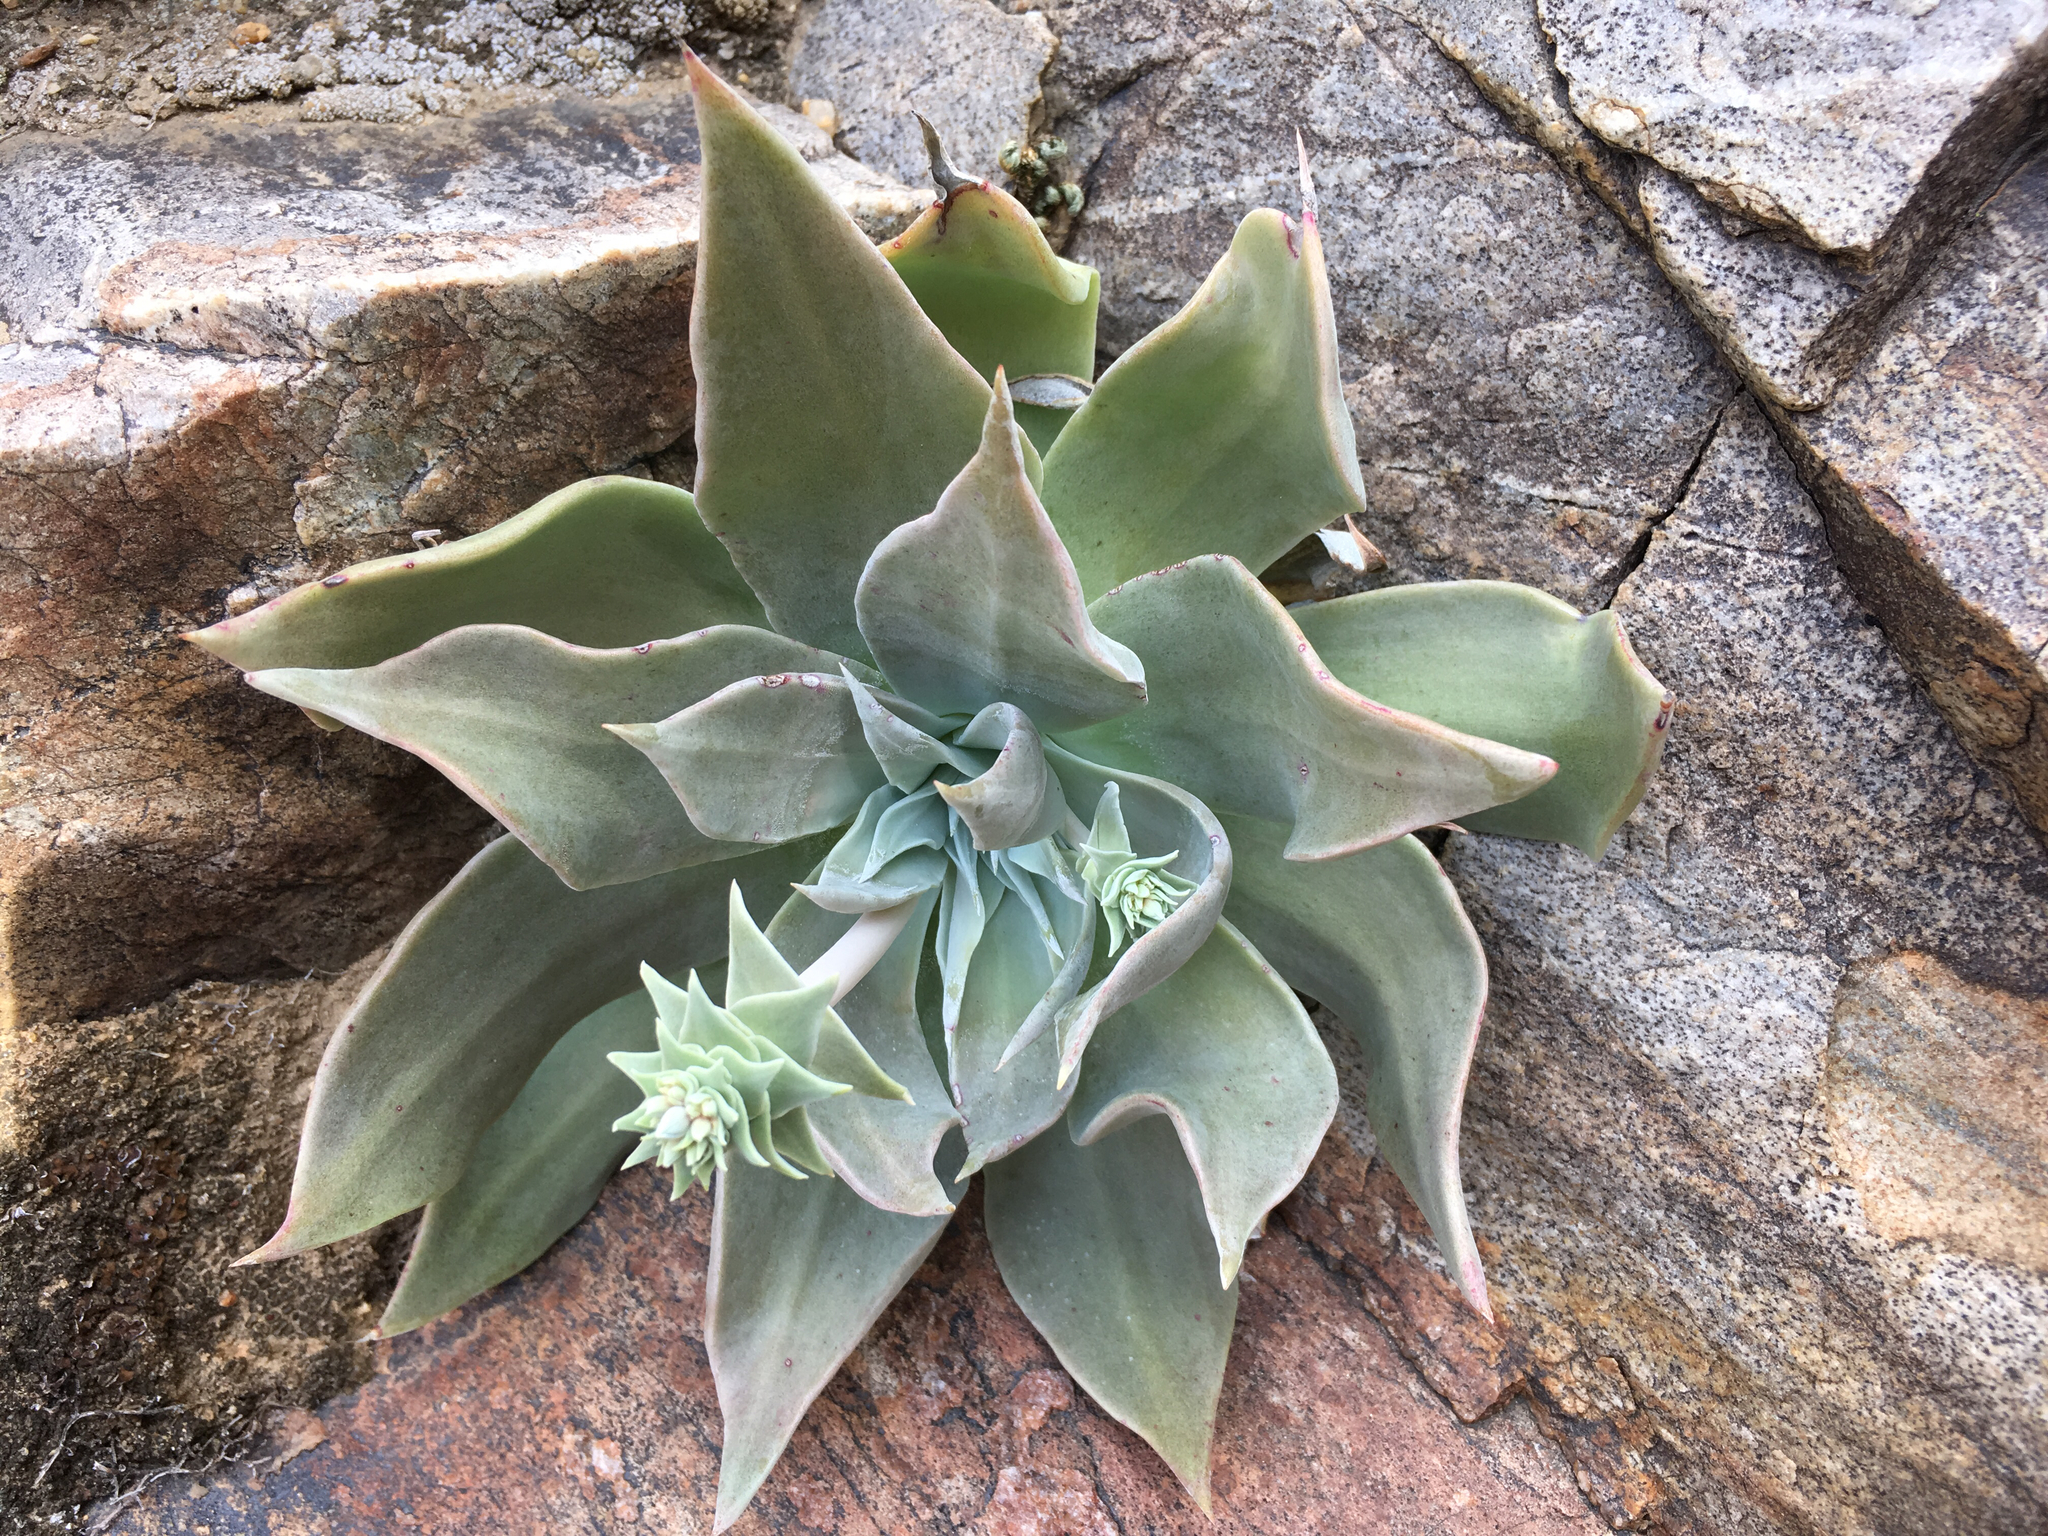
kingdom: Plantae
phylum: Tracheophyta
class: Magnoliopsida
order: Saxifragales
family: Crassulaceae
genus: Dudleya
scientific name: Dudleya arizonica
